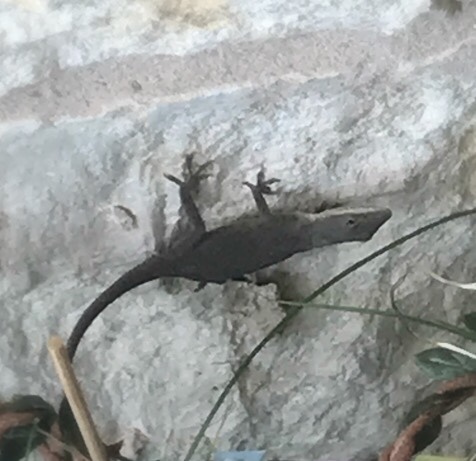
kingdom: Animalia
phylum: Chordata
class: Squamata
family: Dactyloidae
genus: Anolis
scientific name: Anolis carolinensis
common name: Green anole
